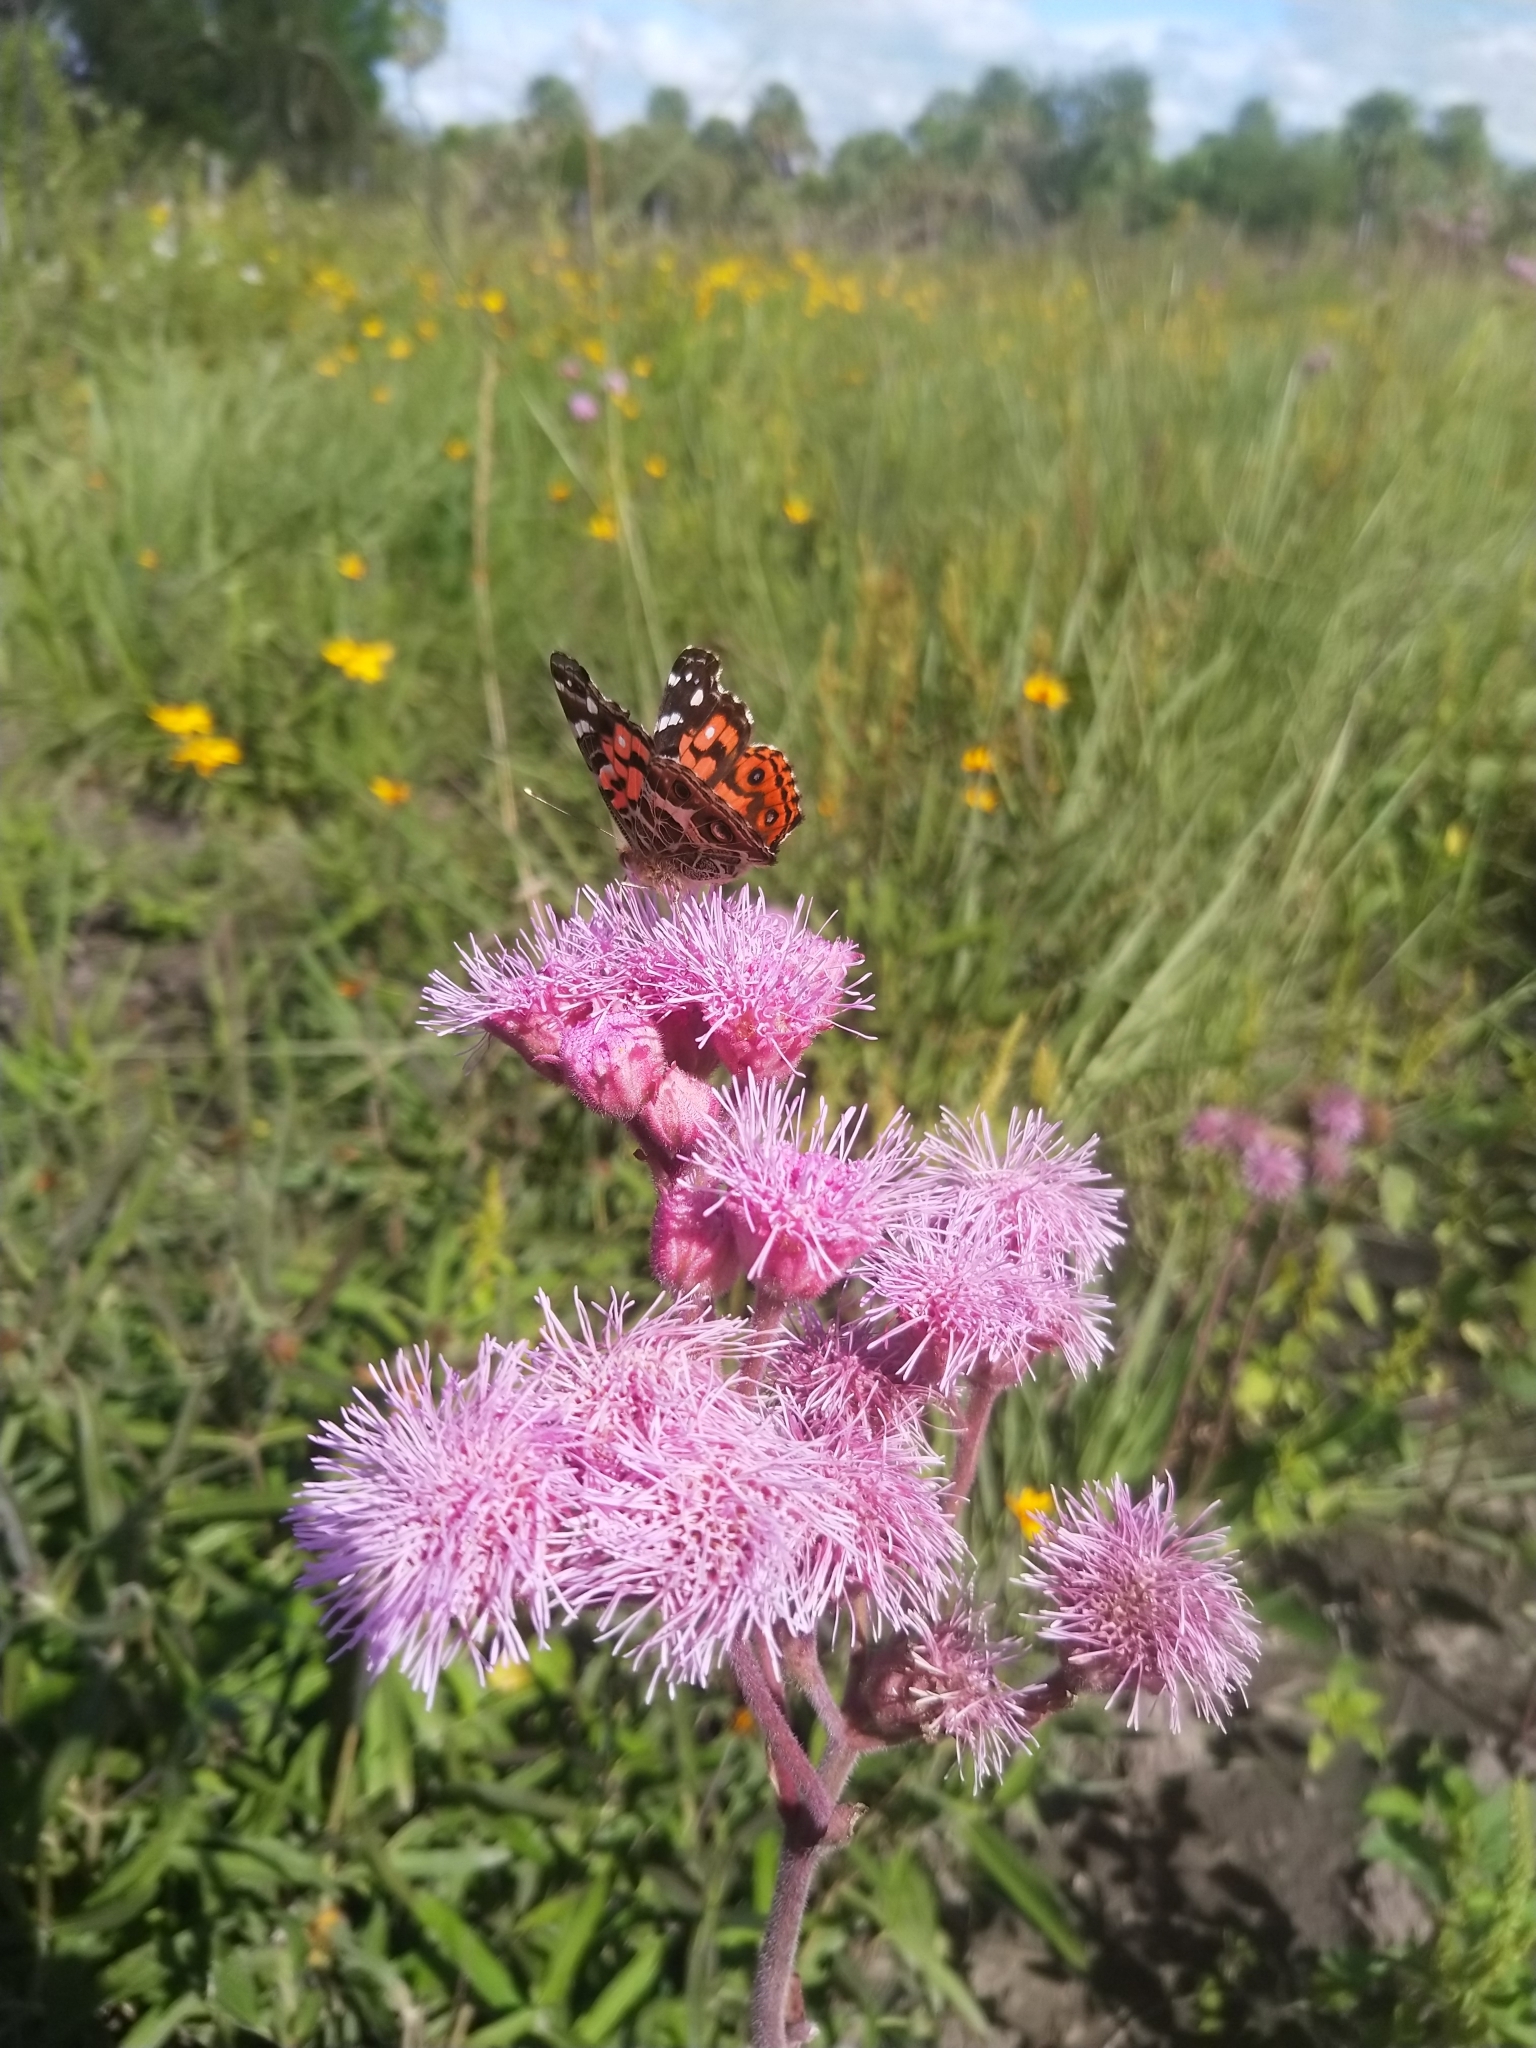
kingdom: Animalia
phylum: Arthropoda
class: Insecta
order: Lepidoptera
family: Nymphalidae
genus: Vanessa
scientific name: Vanessa braziliensis
